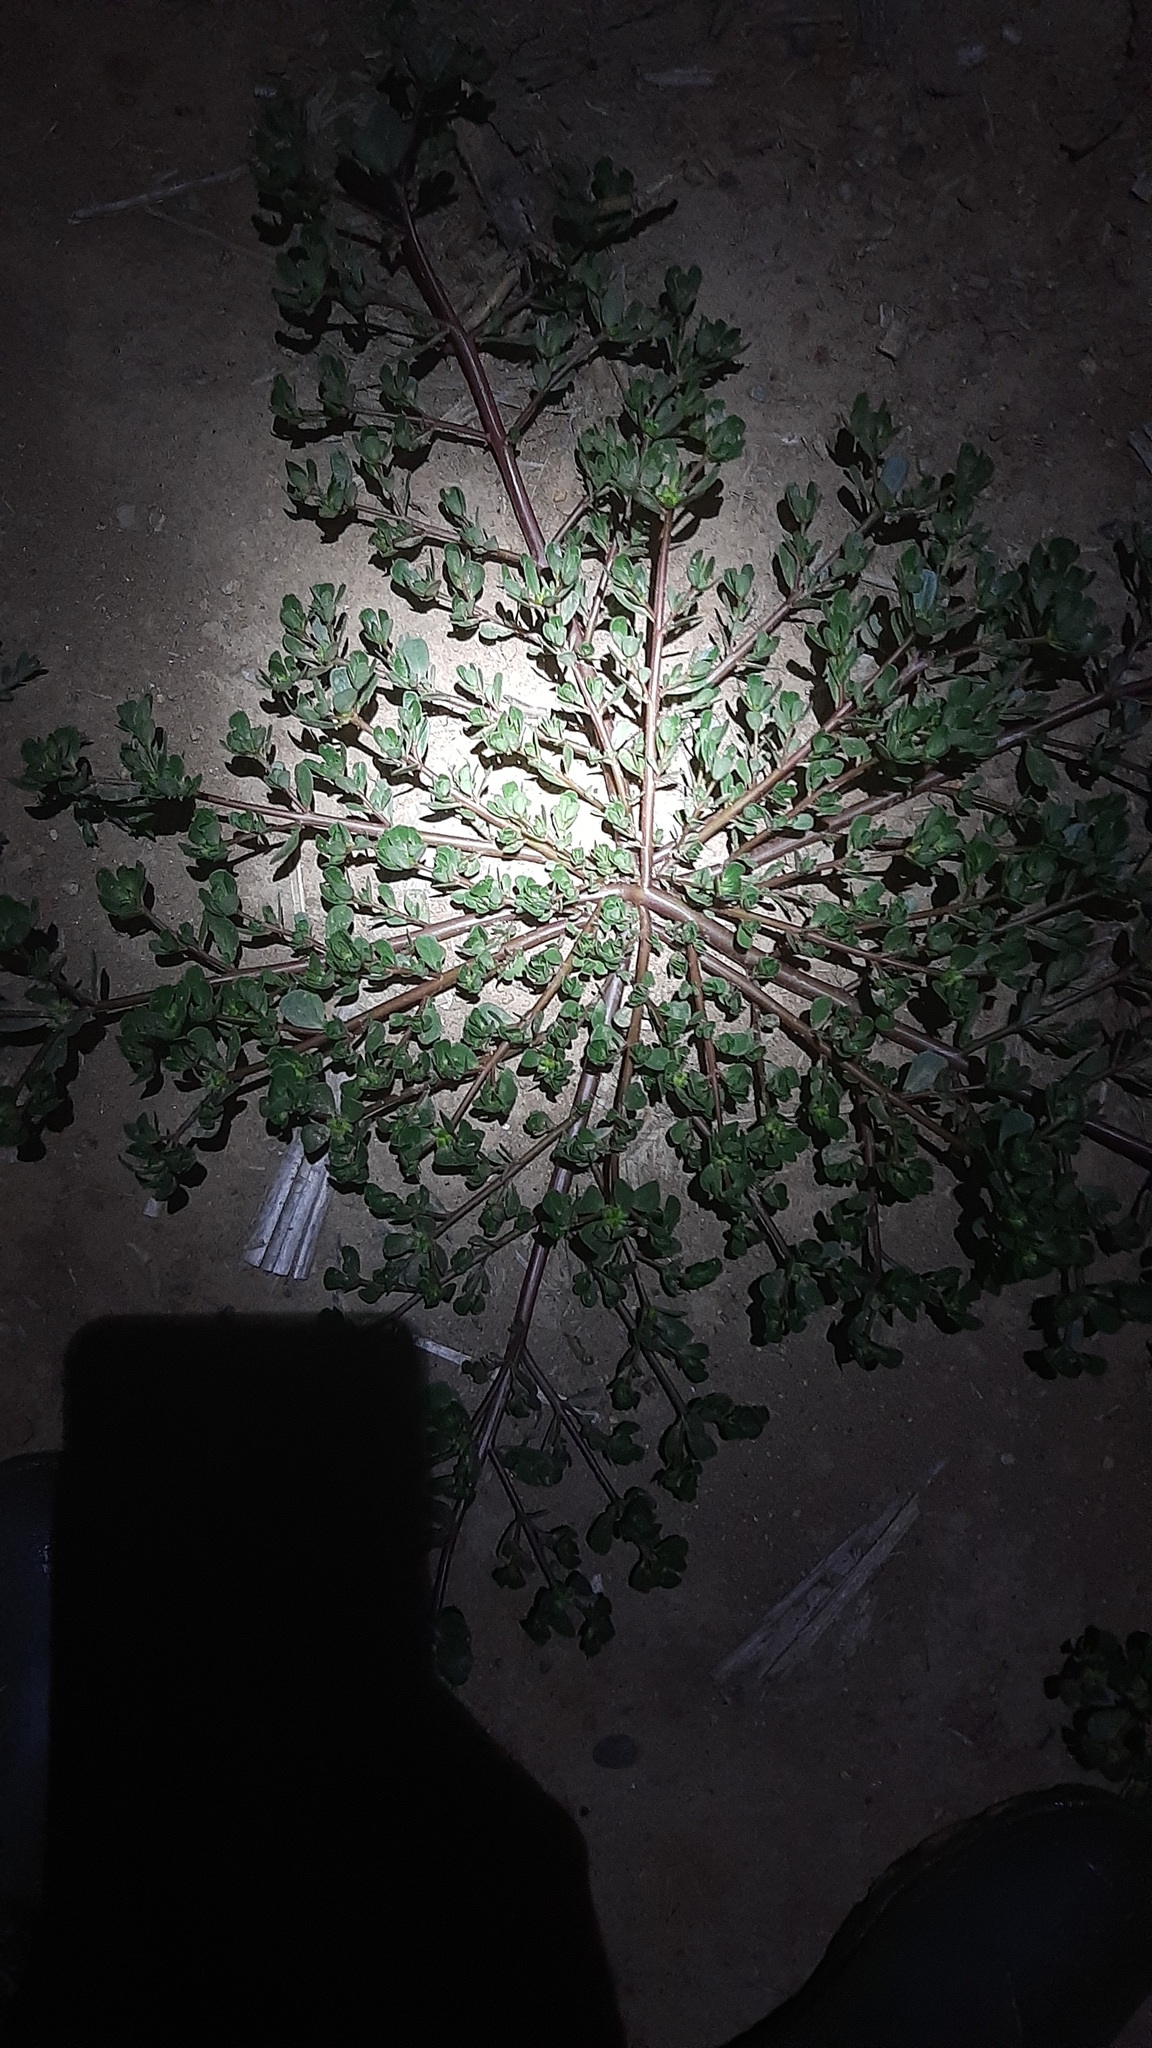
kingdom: Plantae
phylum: Tracheophyta
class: Magnoliopsida
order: Caryophyllales
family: Portulacaceae
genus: Portulaca
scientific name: Portulaca oleracea
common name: Common purslane
